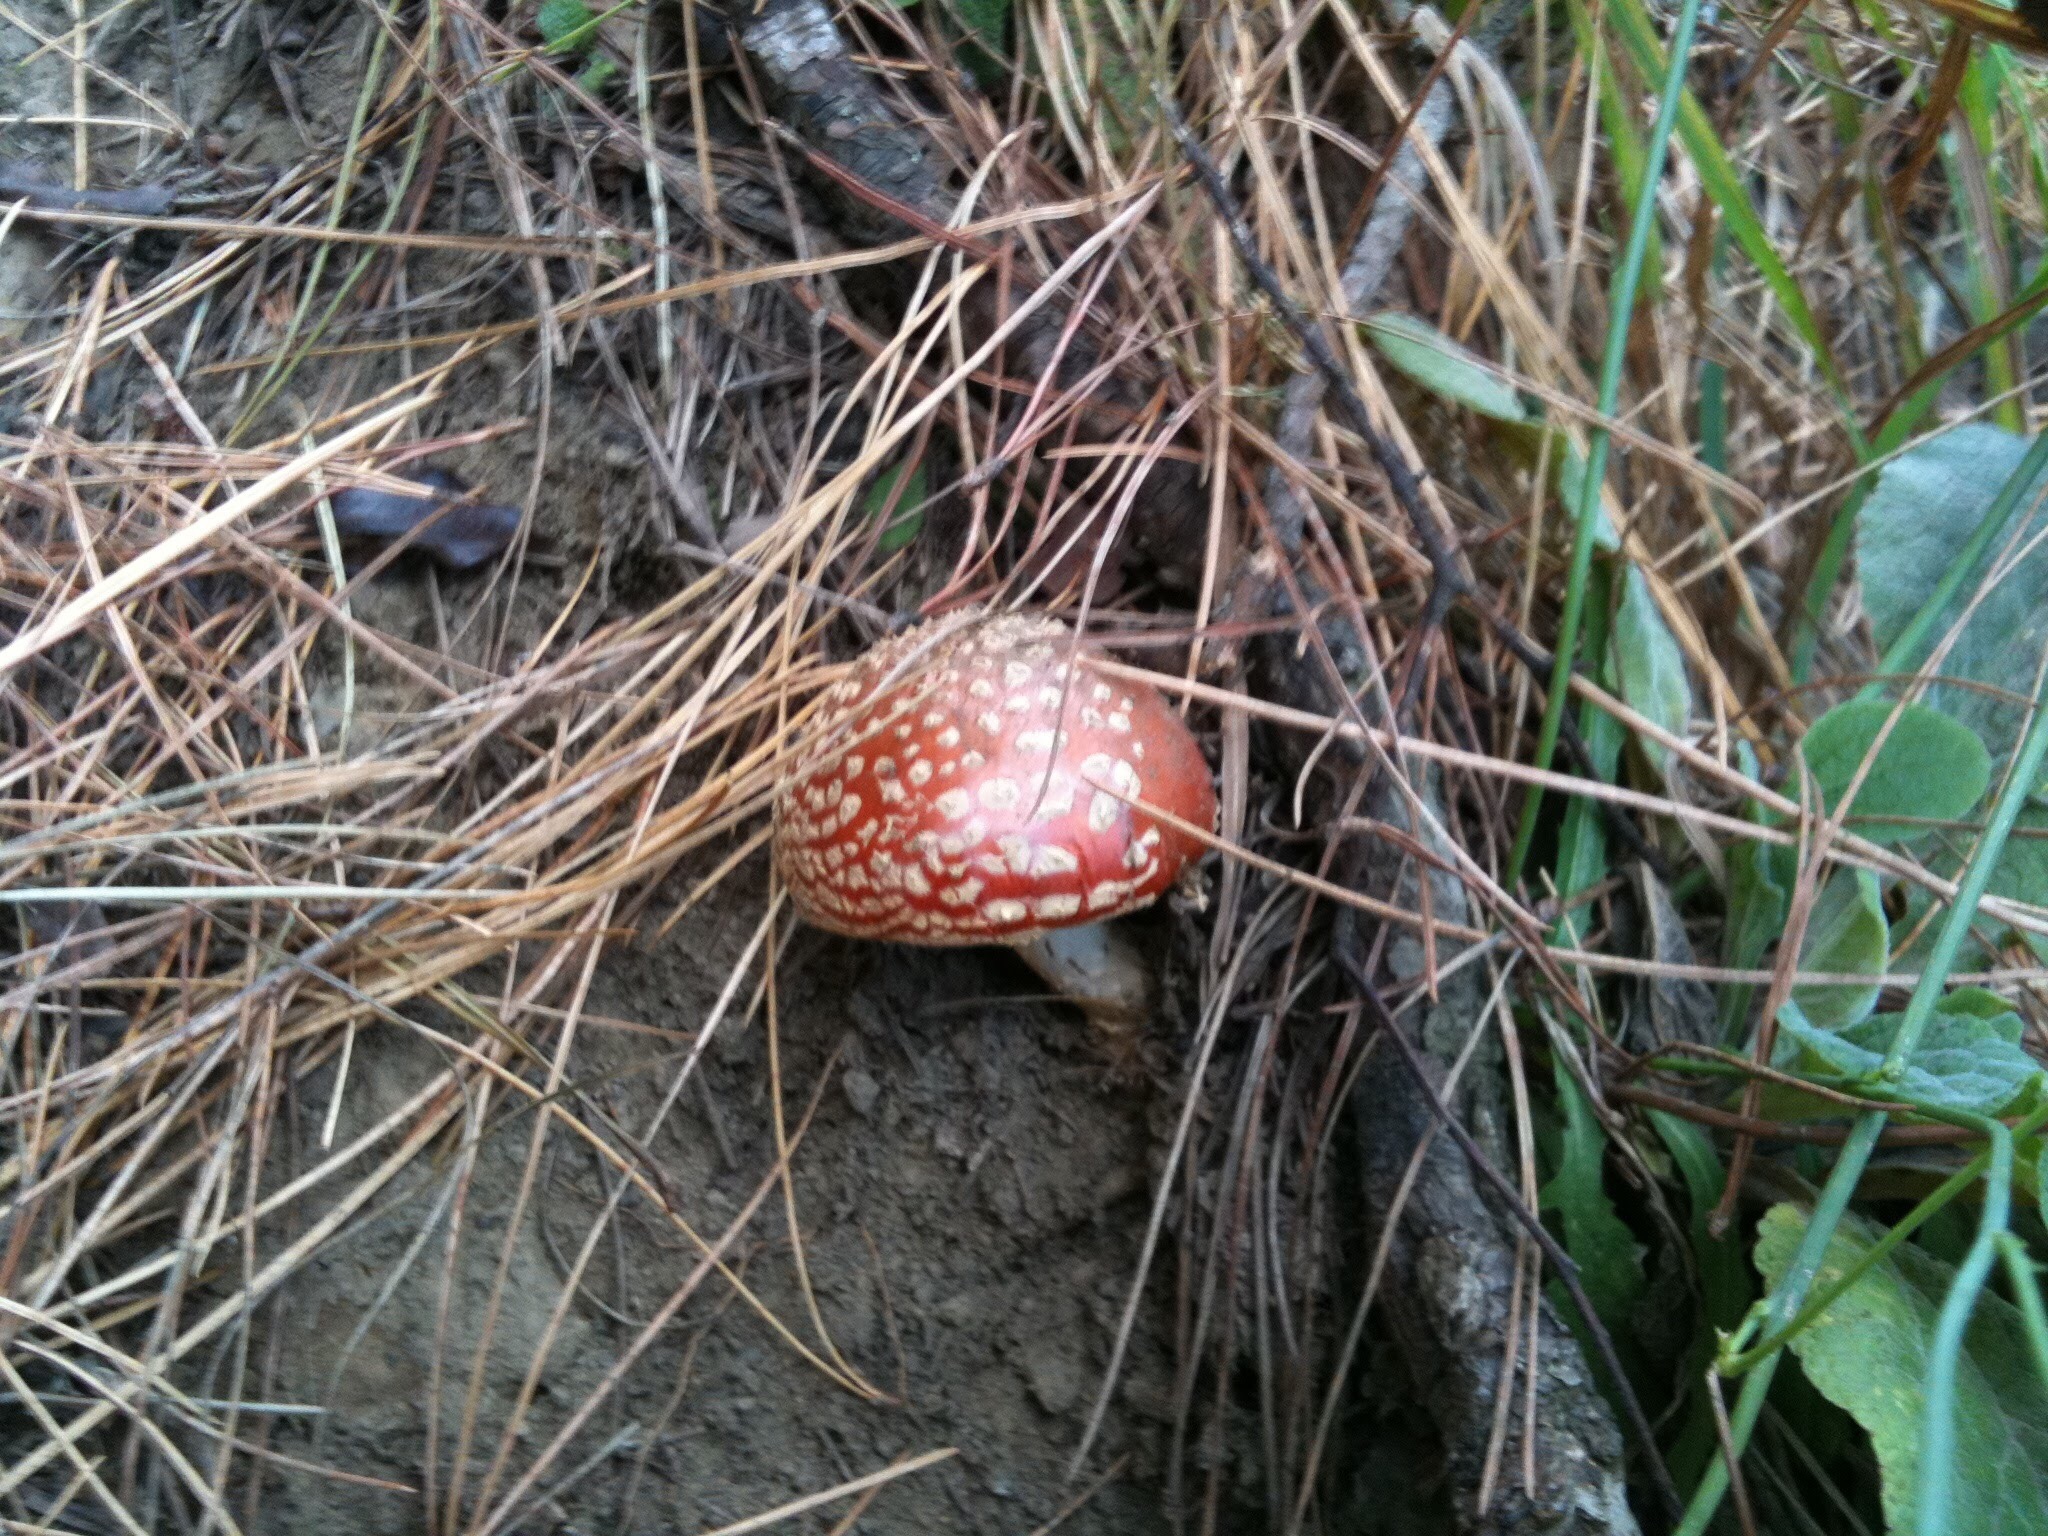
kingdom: Fungi
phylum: Basidiomycota
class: Agaricomycetes
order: Agaricales
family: Amanitaceae
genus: Amanita
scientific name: Amanita muscaria
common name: Fly agaric
